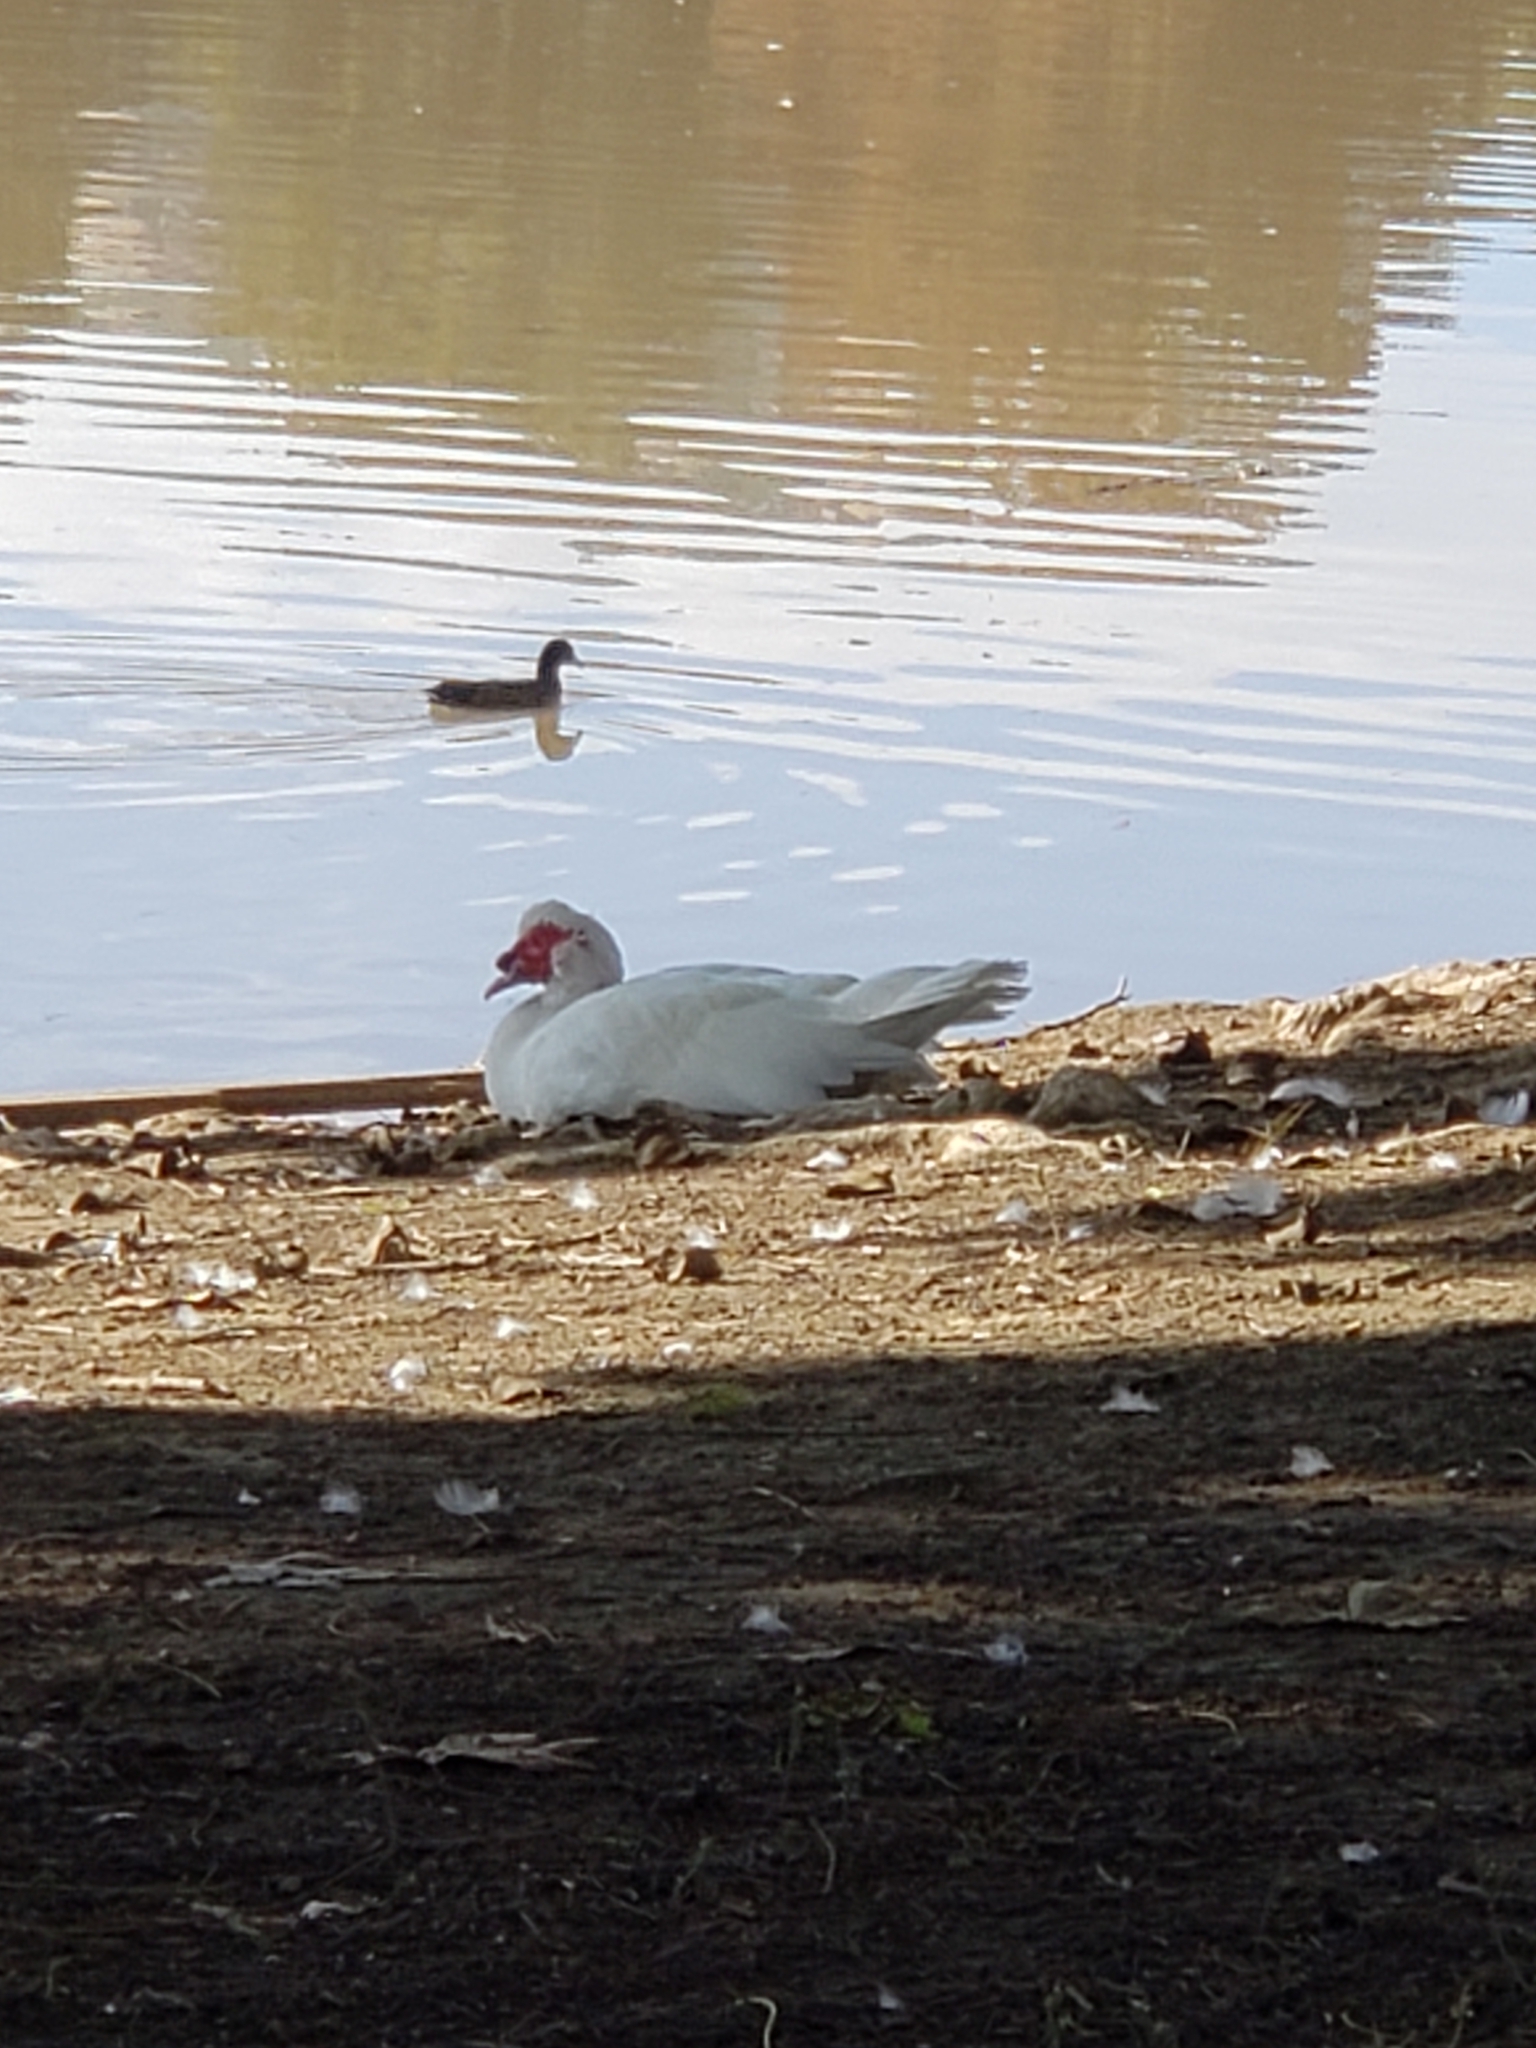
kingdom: Animalia
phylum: Chordata
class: Aves
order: Anseriformes
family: Anatidae
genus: Cairina
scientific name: Cairina moschata
